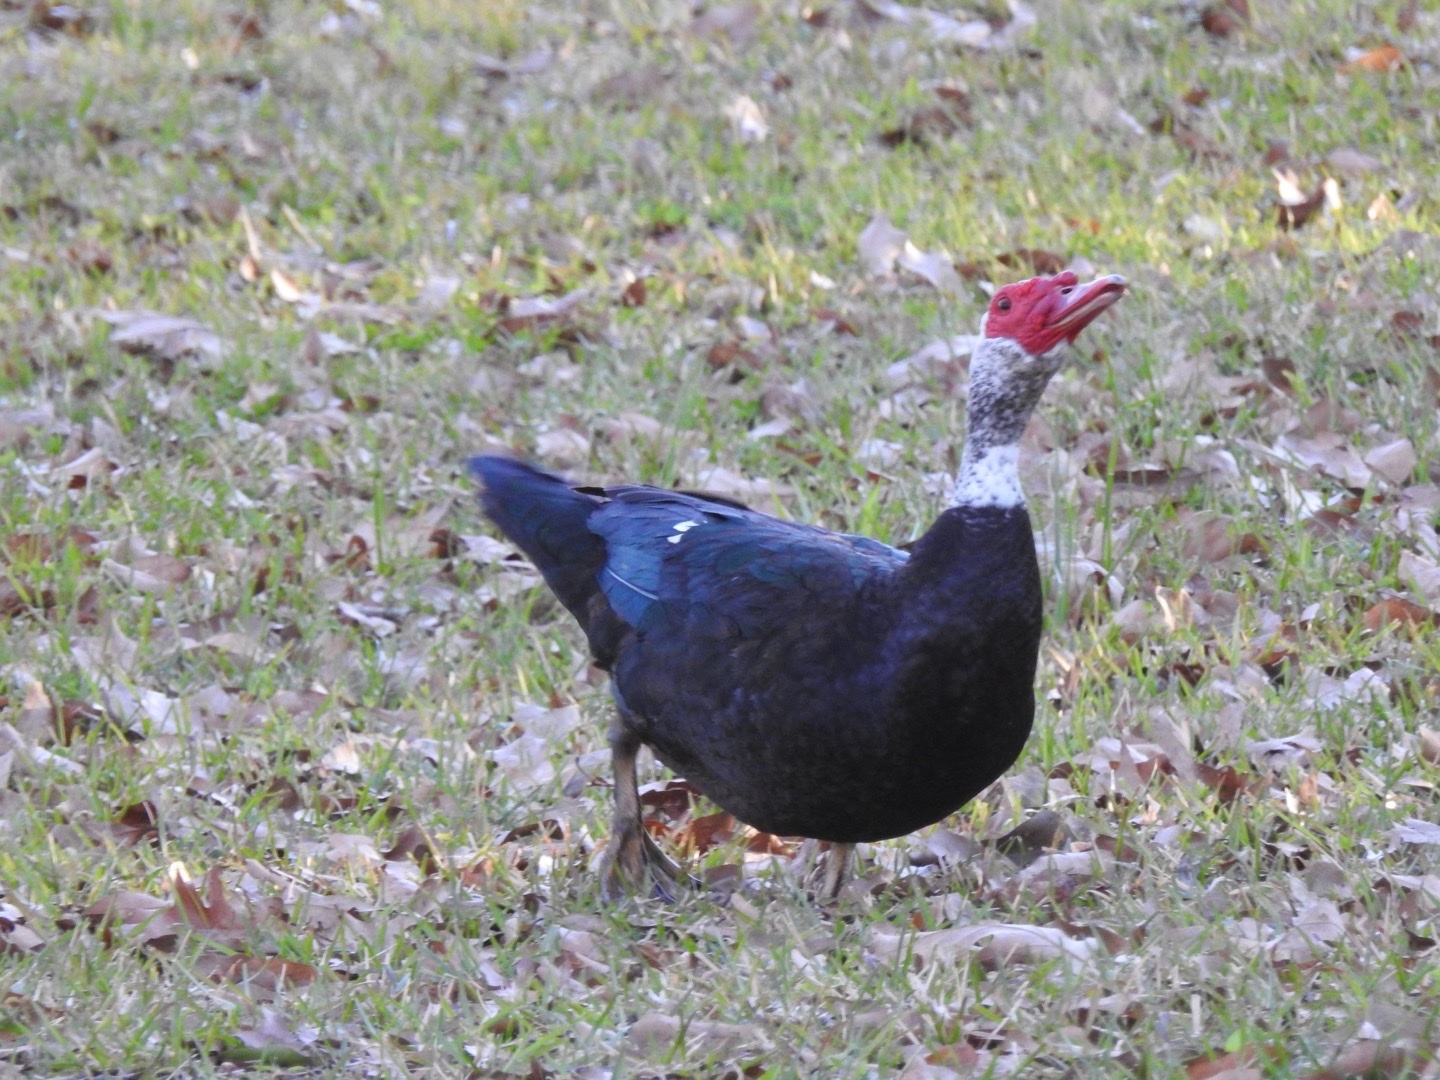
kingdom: Animalia
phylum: Chordata
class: Aves
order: Anseriformes
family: Anatidae
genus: Cairina
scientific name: Cairina moschata
